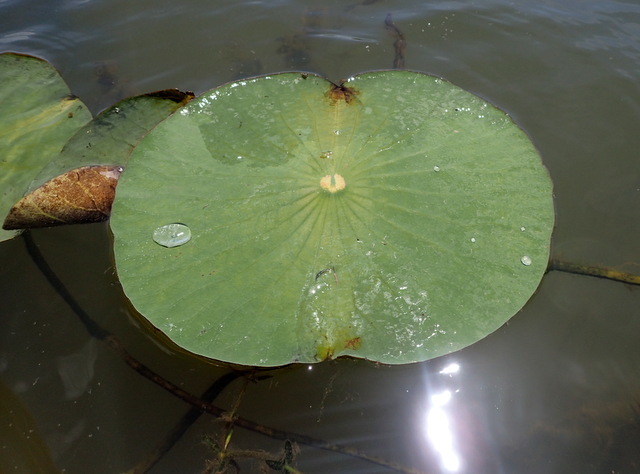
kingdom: Plantae
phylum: Tracheophyta
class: Magnoliopsida
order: Proteales
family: Nelumbonaceae
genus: Nelumbo
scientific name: Nelumbo lutea
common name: American lotus
